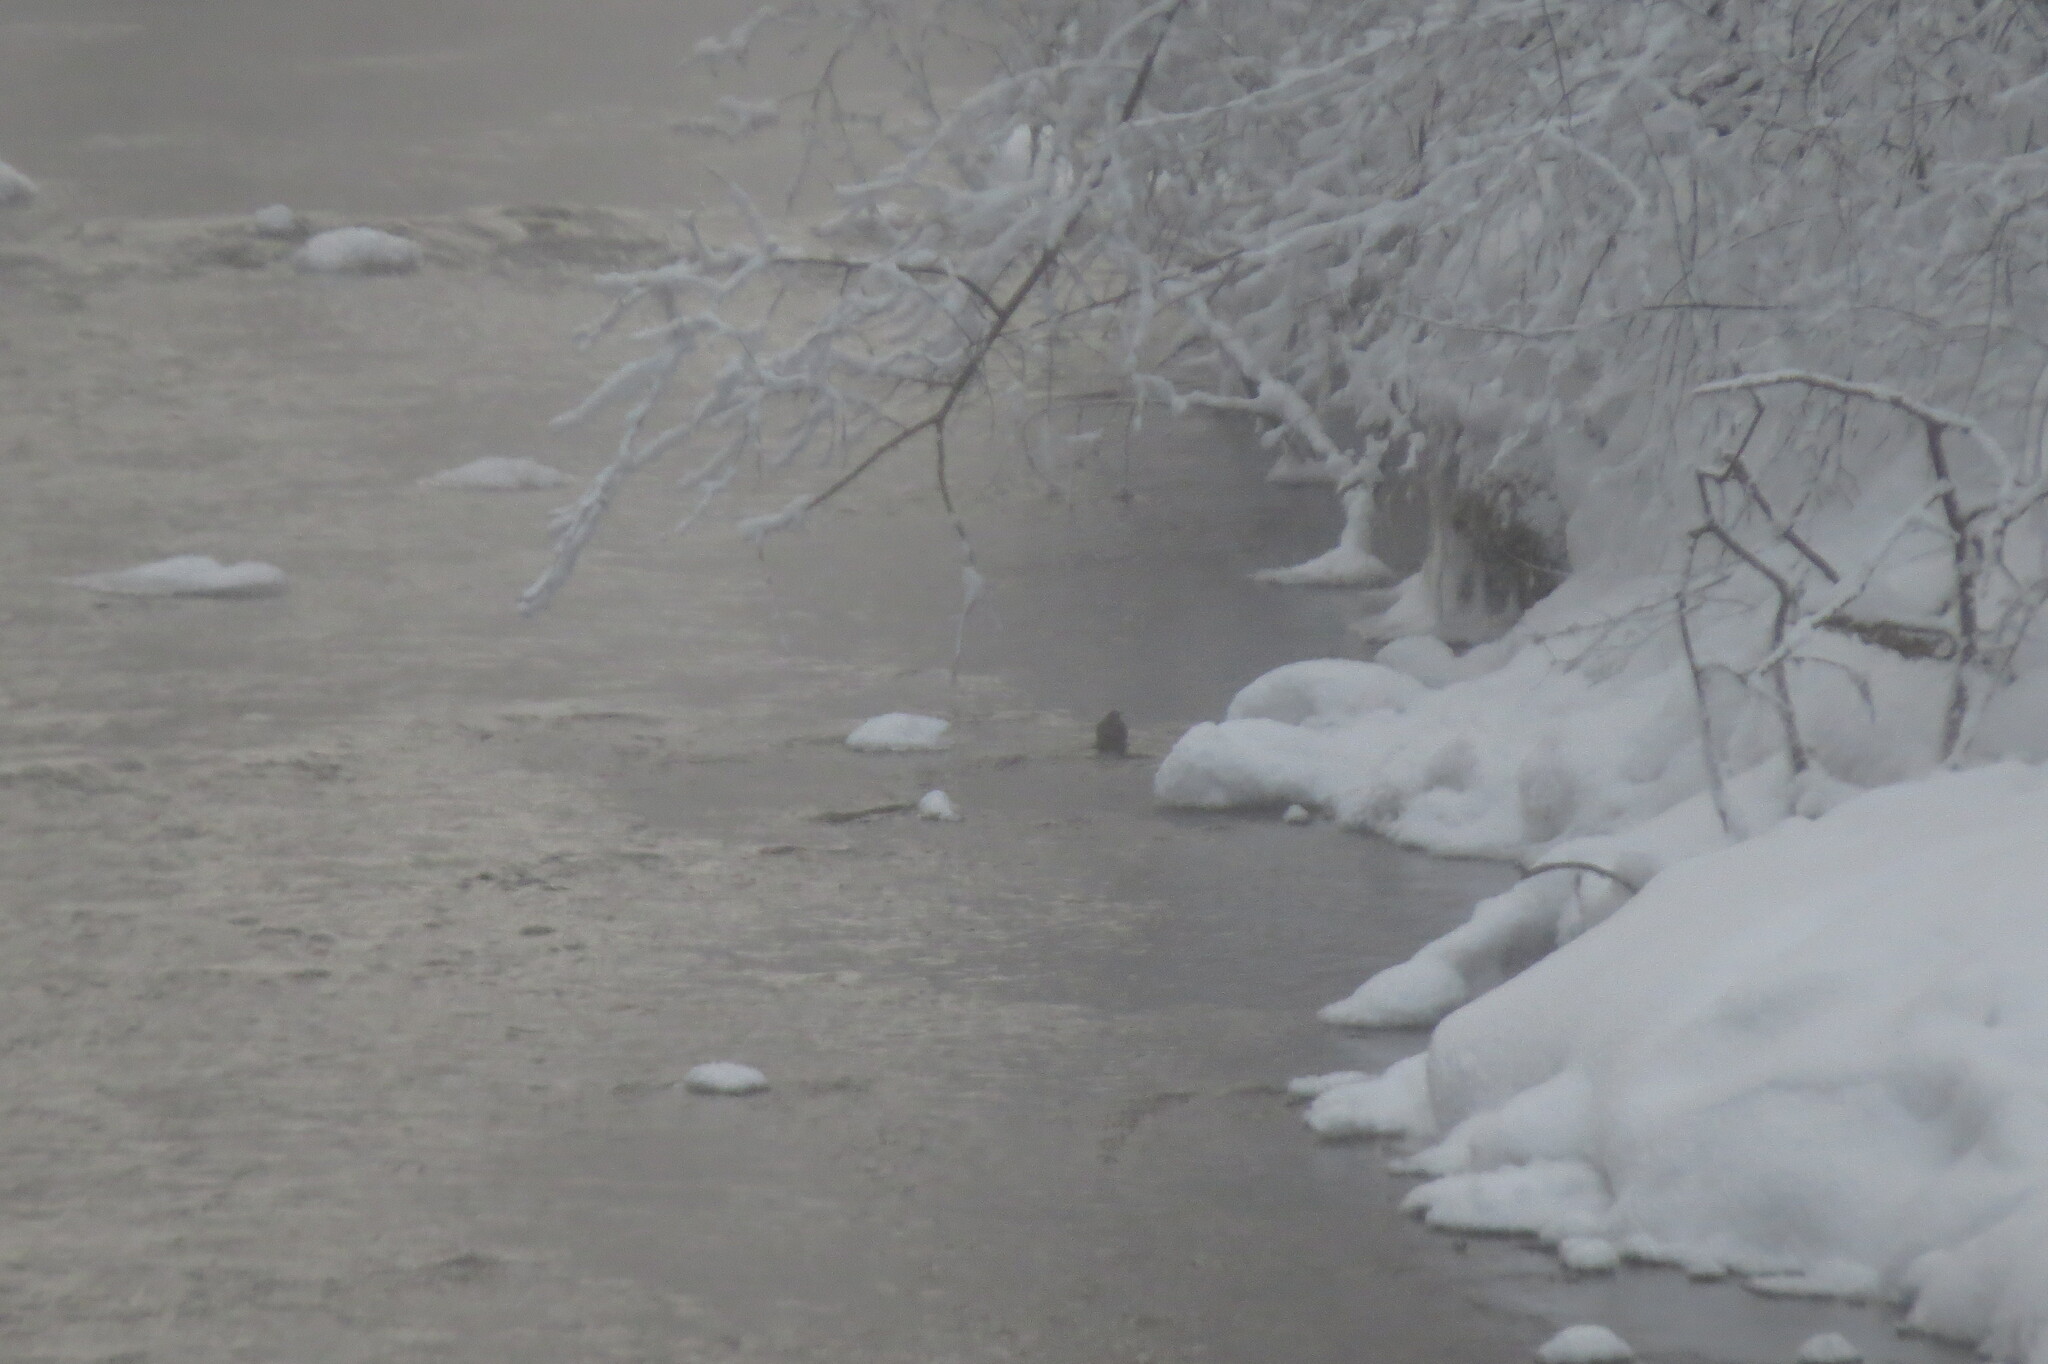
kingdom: Animalia
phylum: Chordata
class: Aves
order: Passeriformes
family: Cinclidae
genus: Cinclus
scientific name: Cinclus cinclus
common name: White-throated dipper
